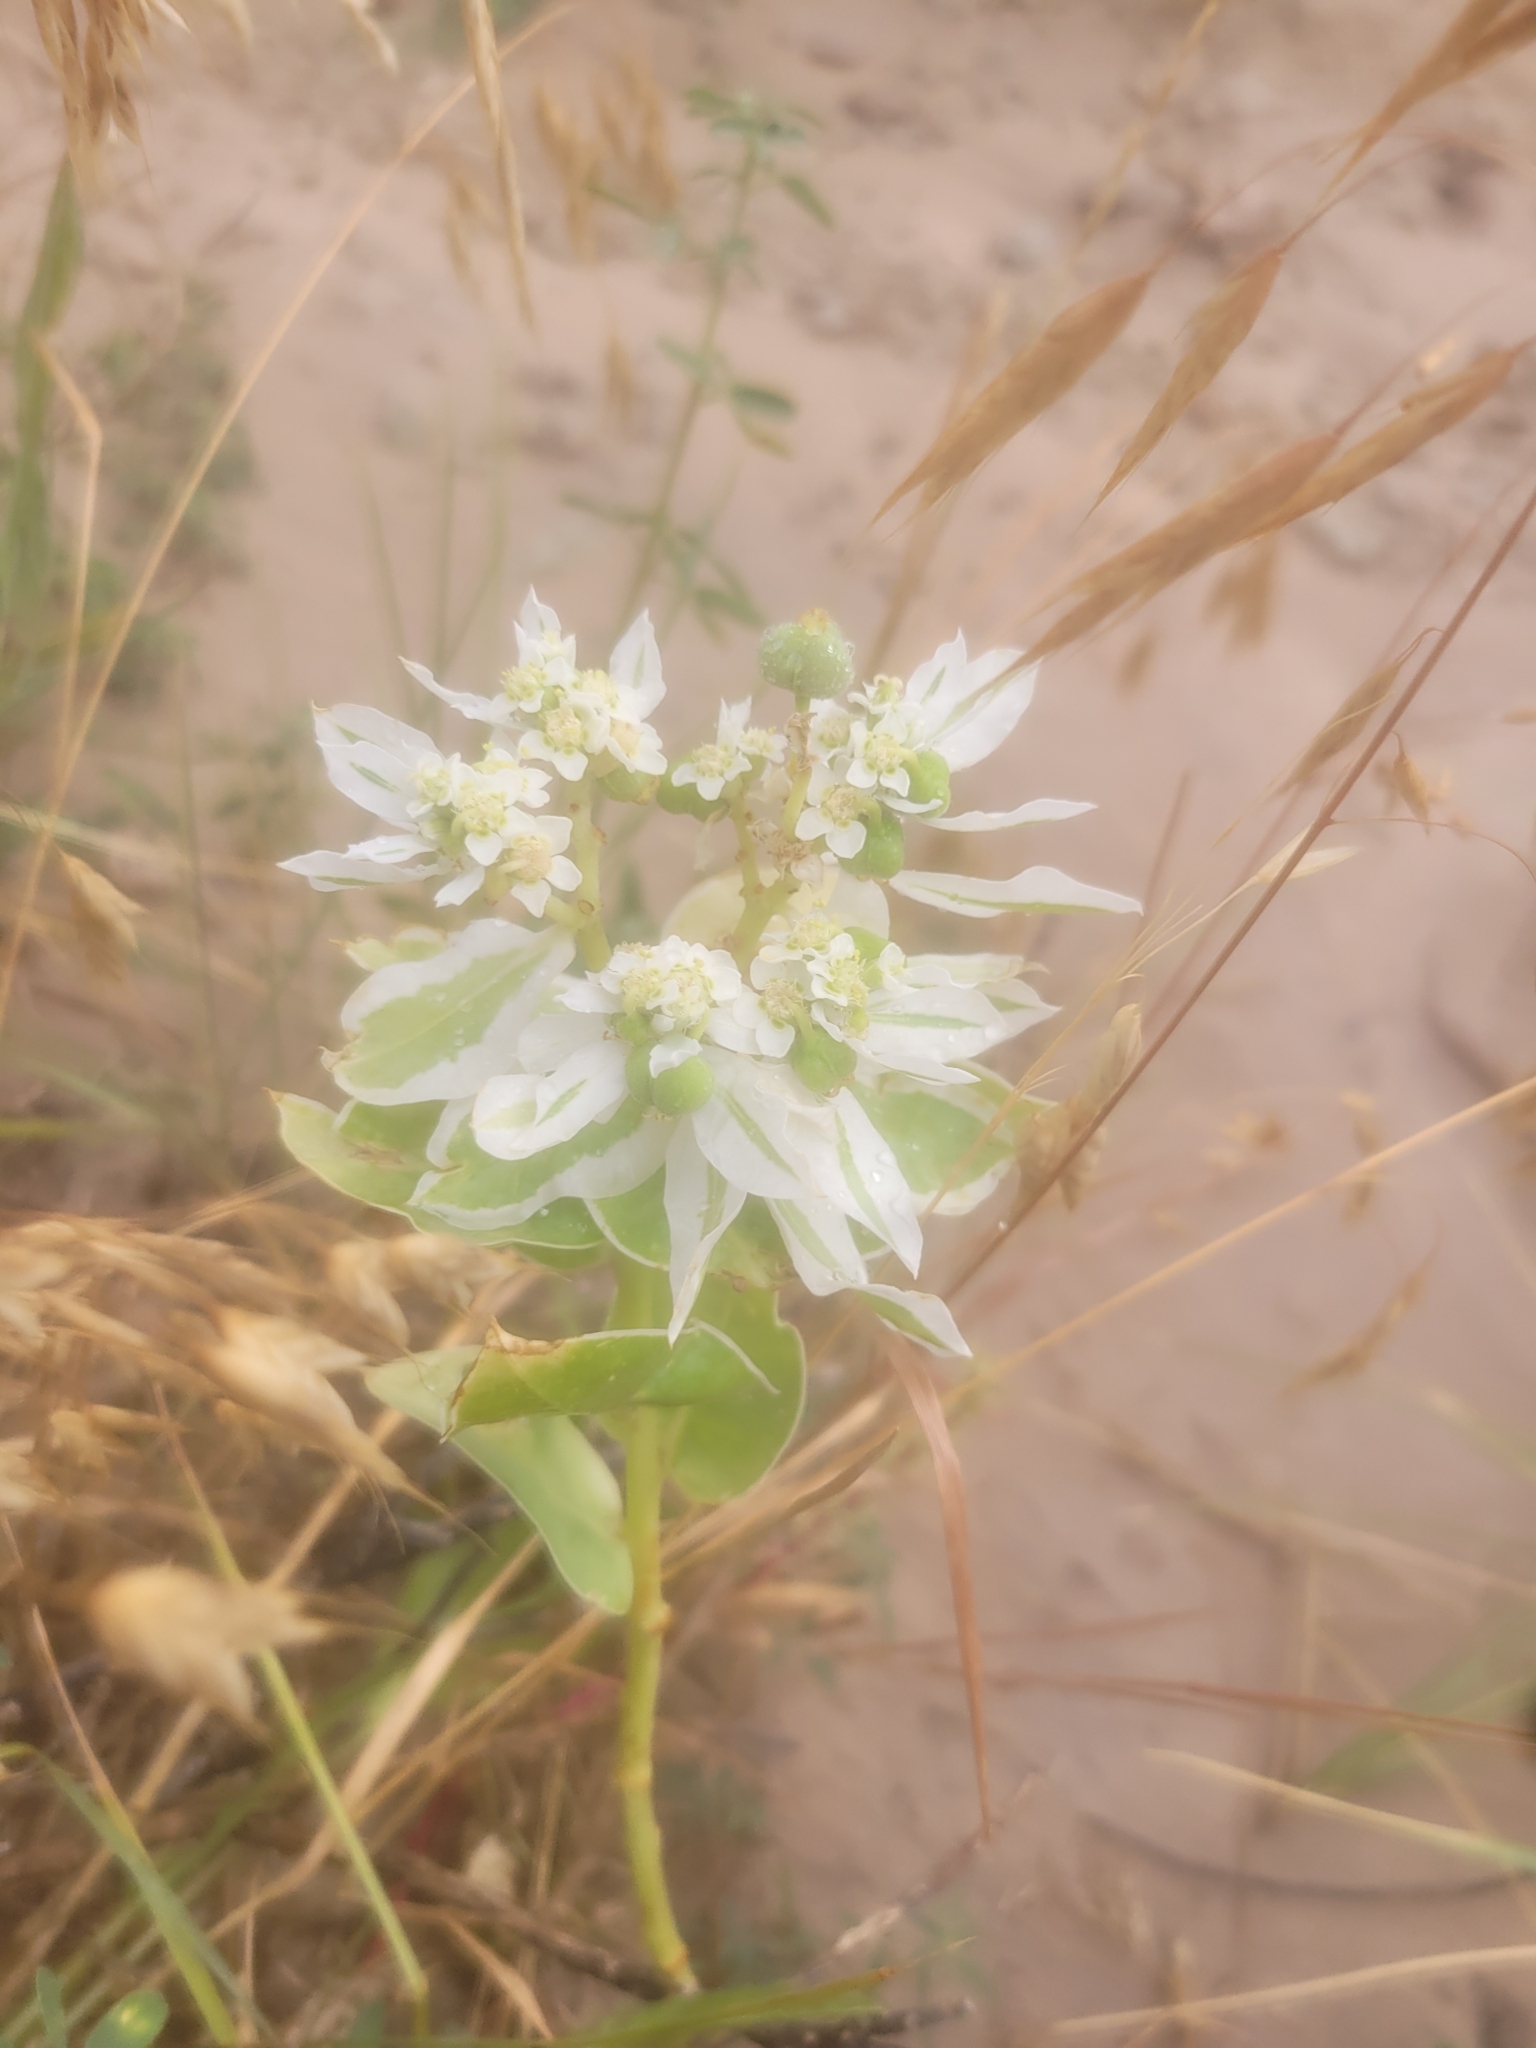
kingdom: Plantae
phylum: Tracheophyta
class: Magnoliopsida
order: Malpighiales
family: Euphorbiaceae
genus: Euphorbia
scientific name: Euphorbia marginata
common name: Ghostweed
